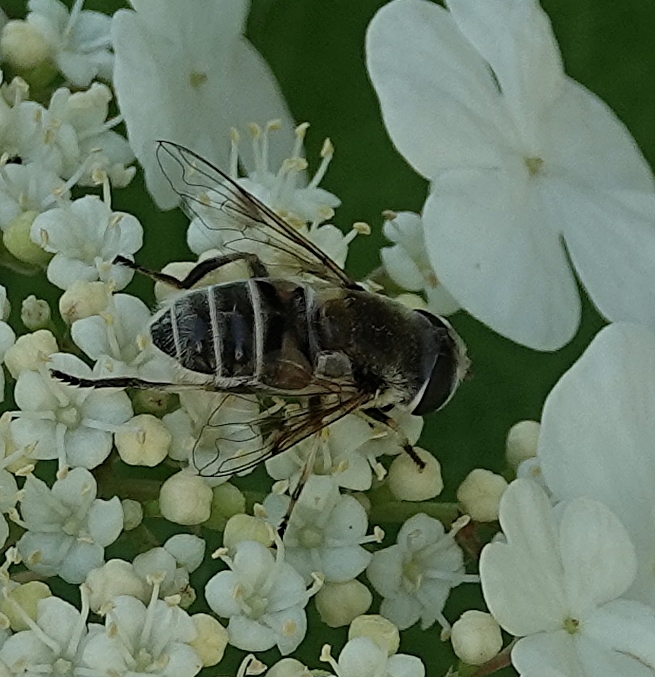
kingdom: Animalia
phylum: Arthropoda
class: Insecta
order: Diptera
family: Syrphidae
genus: Eristalis
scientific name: Eristalis stipator
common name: Yellow-shouldered drone fly
